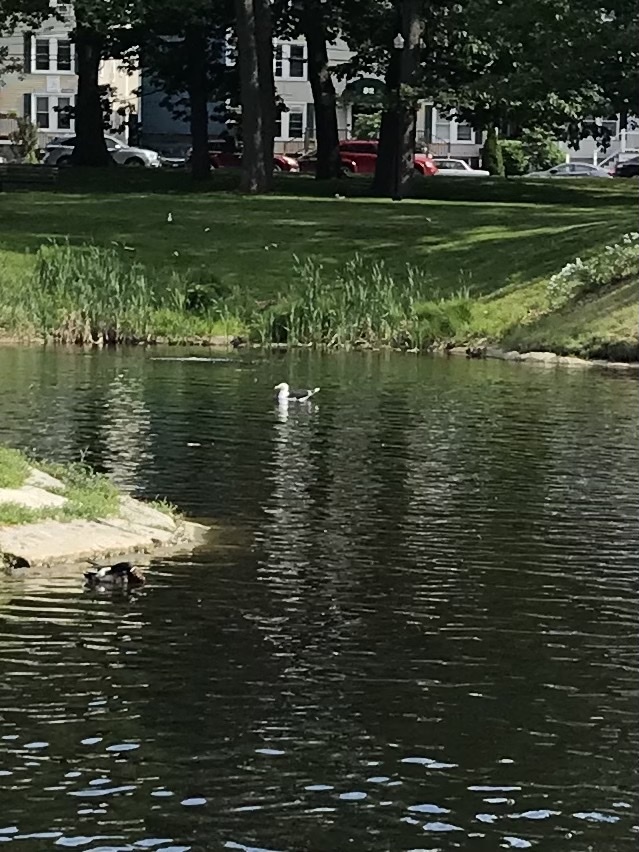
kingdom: Animalia
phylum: Chordata
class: Aves
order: Charadriiformes
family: Laridae
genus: Larus
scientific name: Larus marinus
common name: Great black-backed gull
